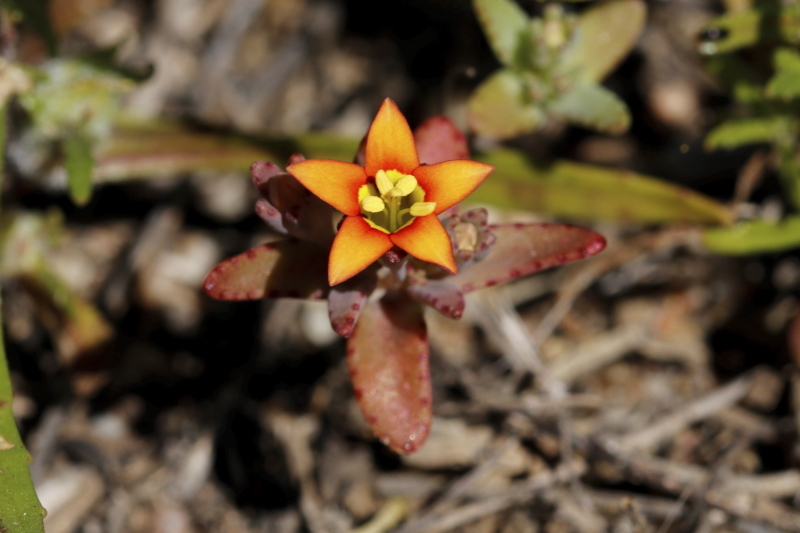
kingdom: Plantae
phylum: Tracheophyta
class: Magnoliopsida
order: Saxifragales
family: Crassulaceae
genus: Crassula
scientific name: Crassula dichotoma
